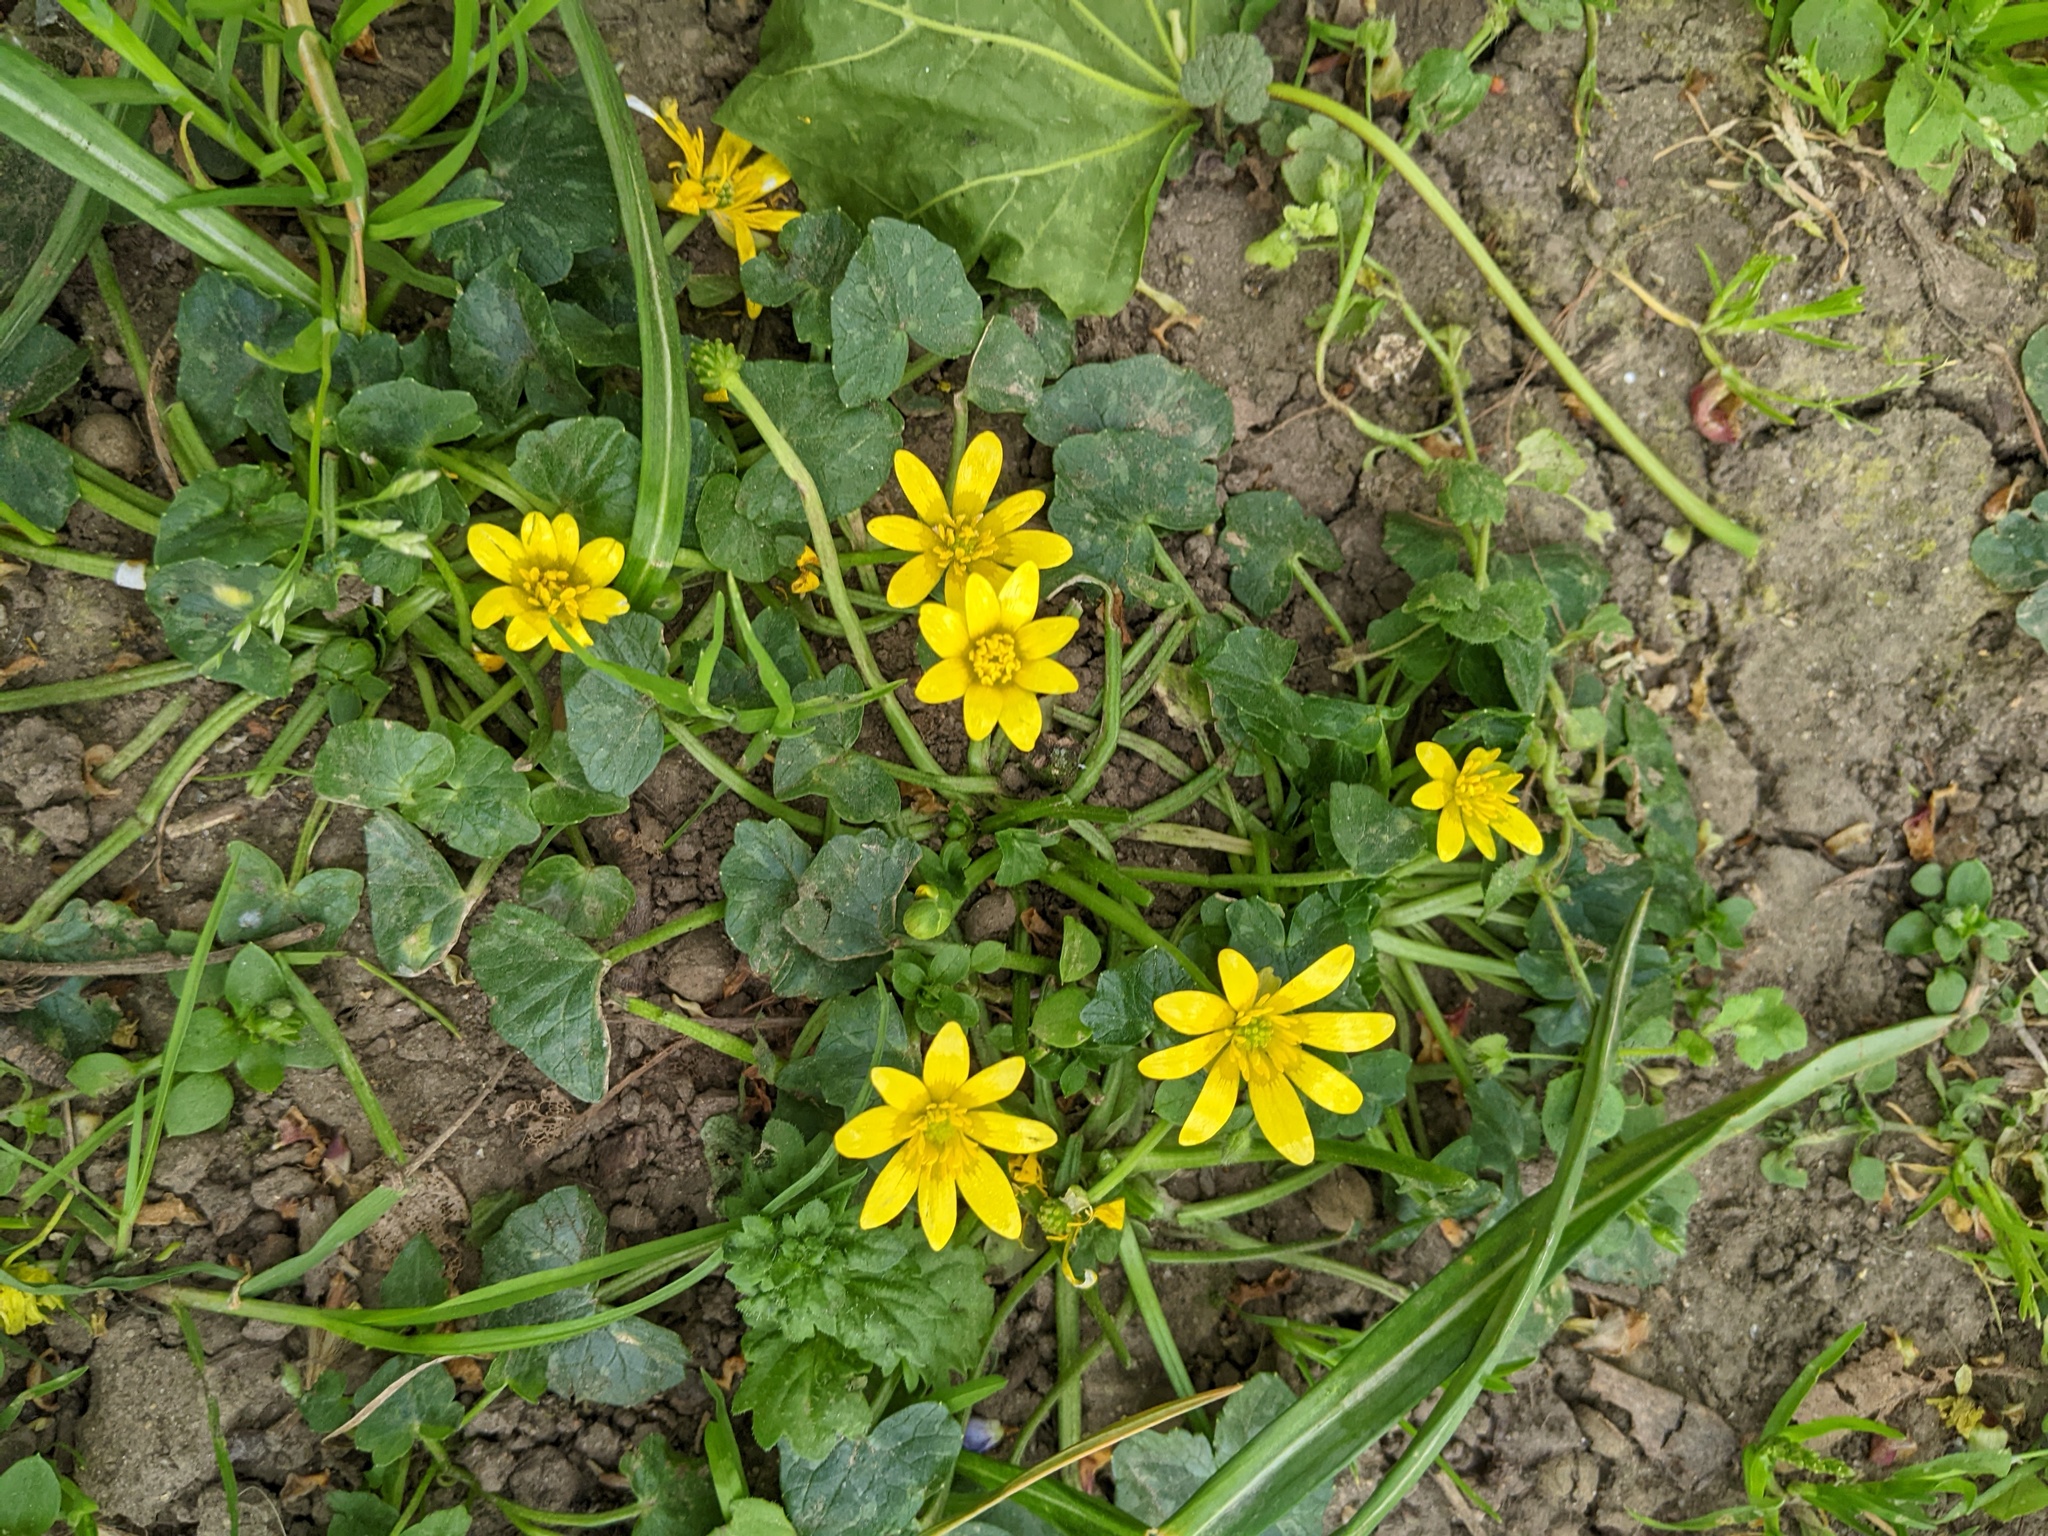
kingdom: Plantae
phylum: Tracheophyta
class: Magnoliopsida
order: Ranunculales
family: Ranunculaceae
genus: Ficaria
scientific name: Ficaria verna
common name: Lesser celandine
